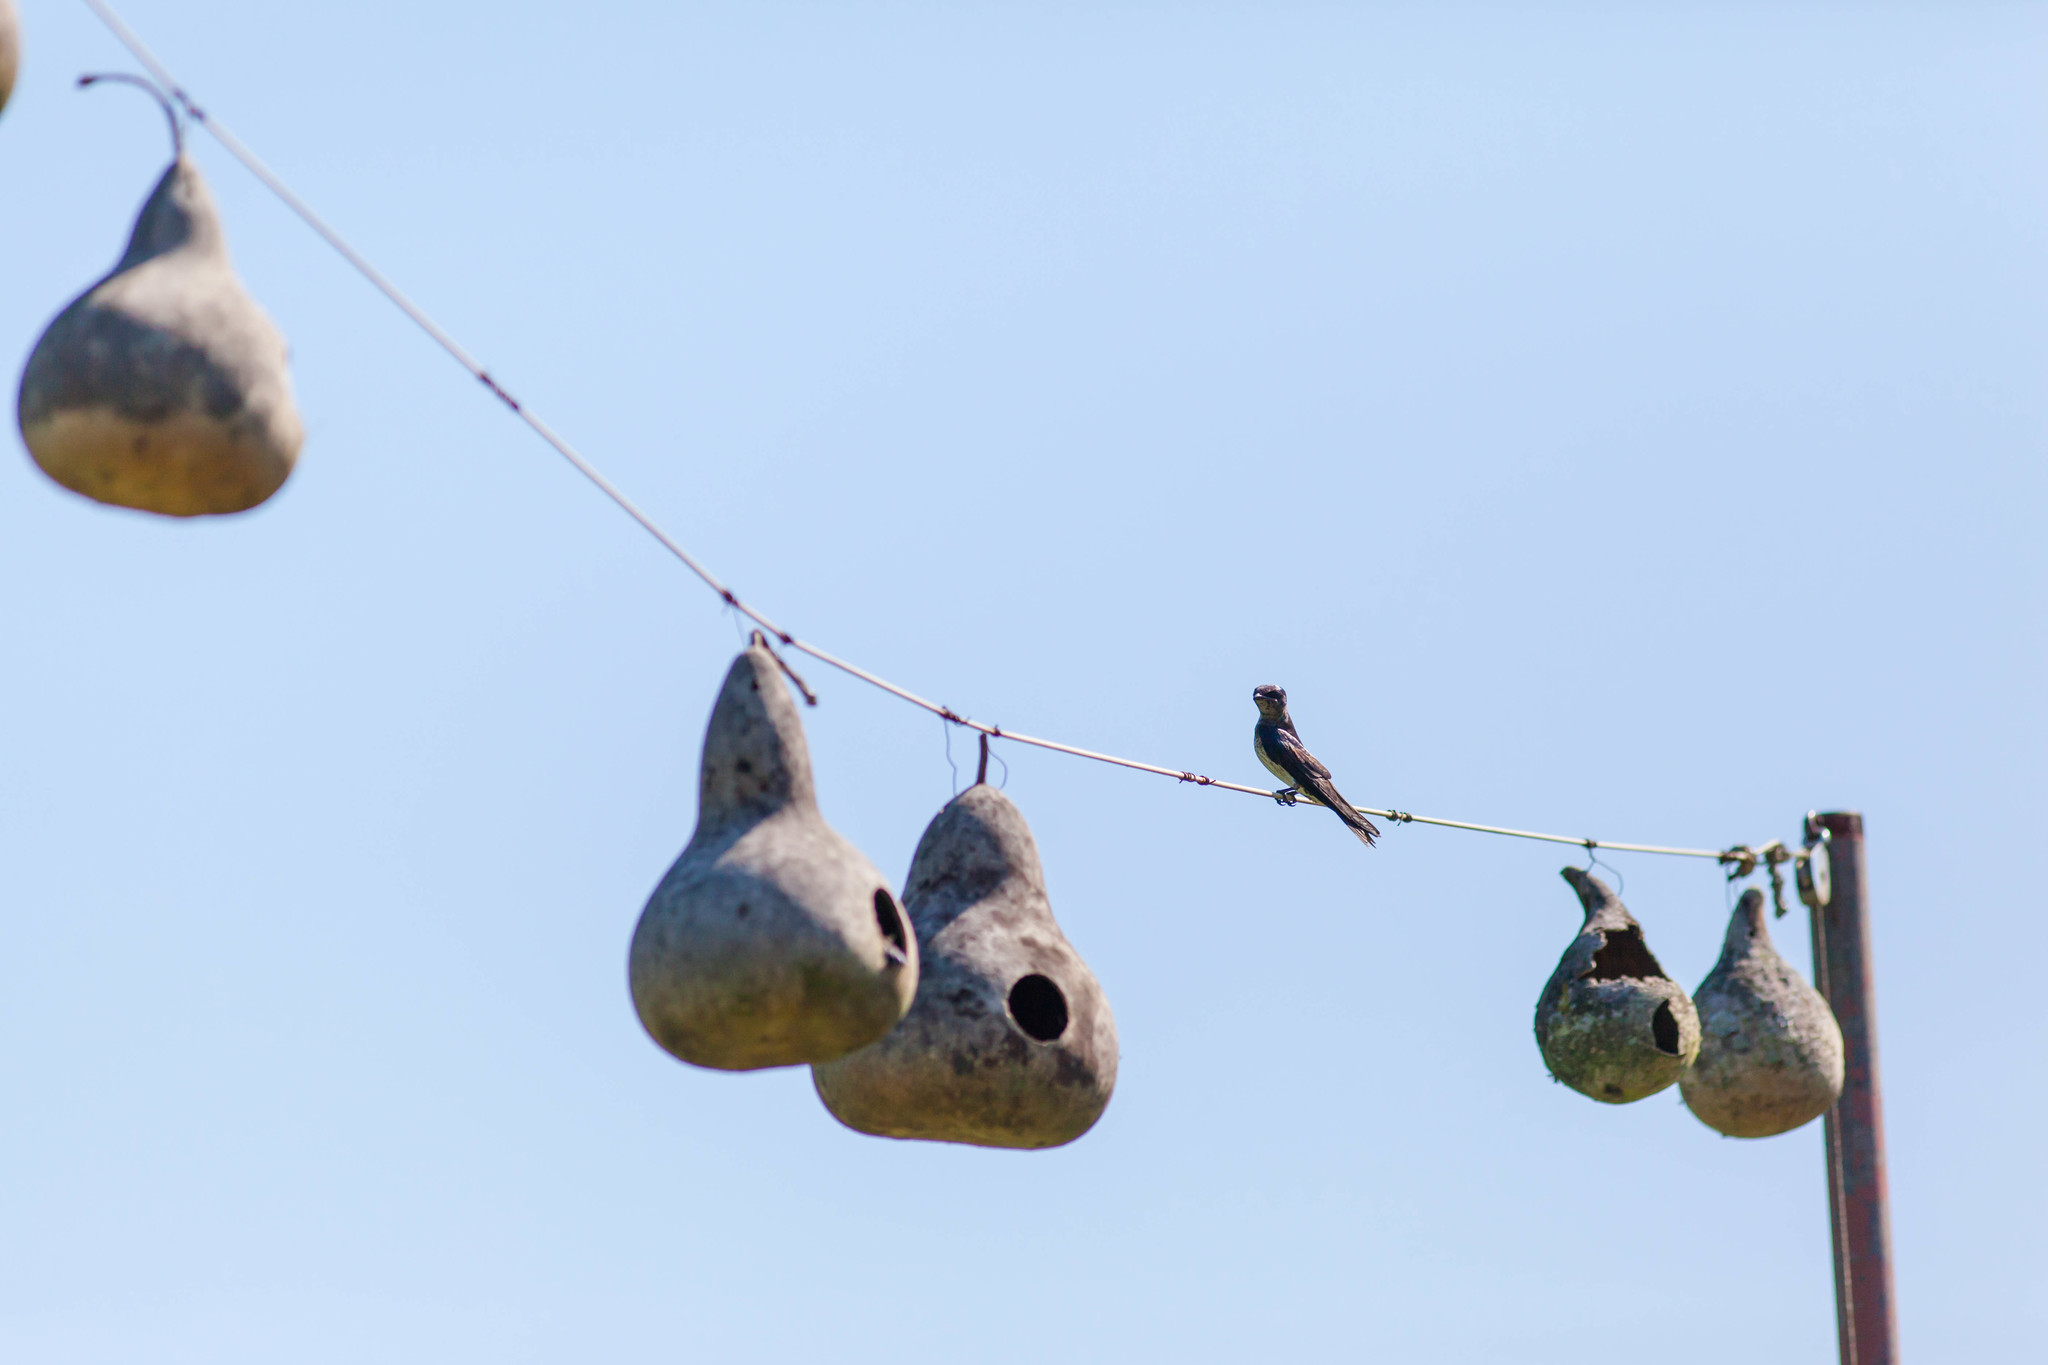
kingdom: Animalia
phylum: Chordata
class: Aves
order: Passeriformes
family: Hirundinidae
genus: Progne
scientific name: Progne subis
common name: Purple martin
